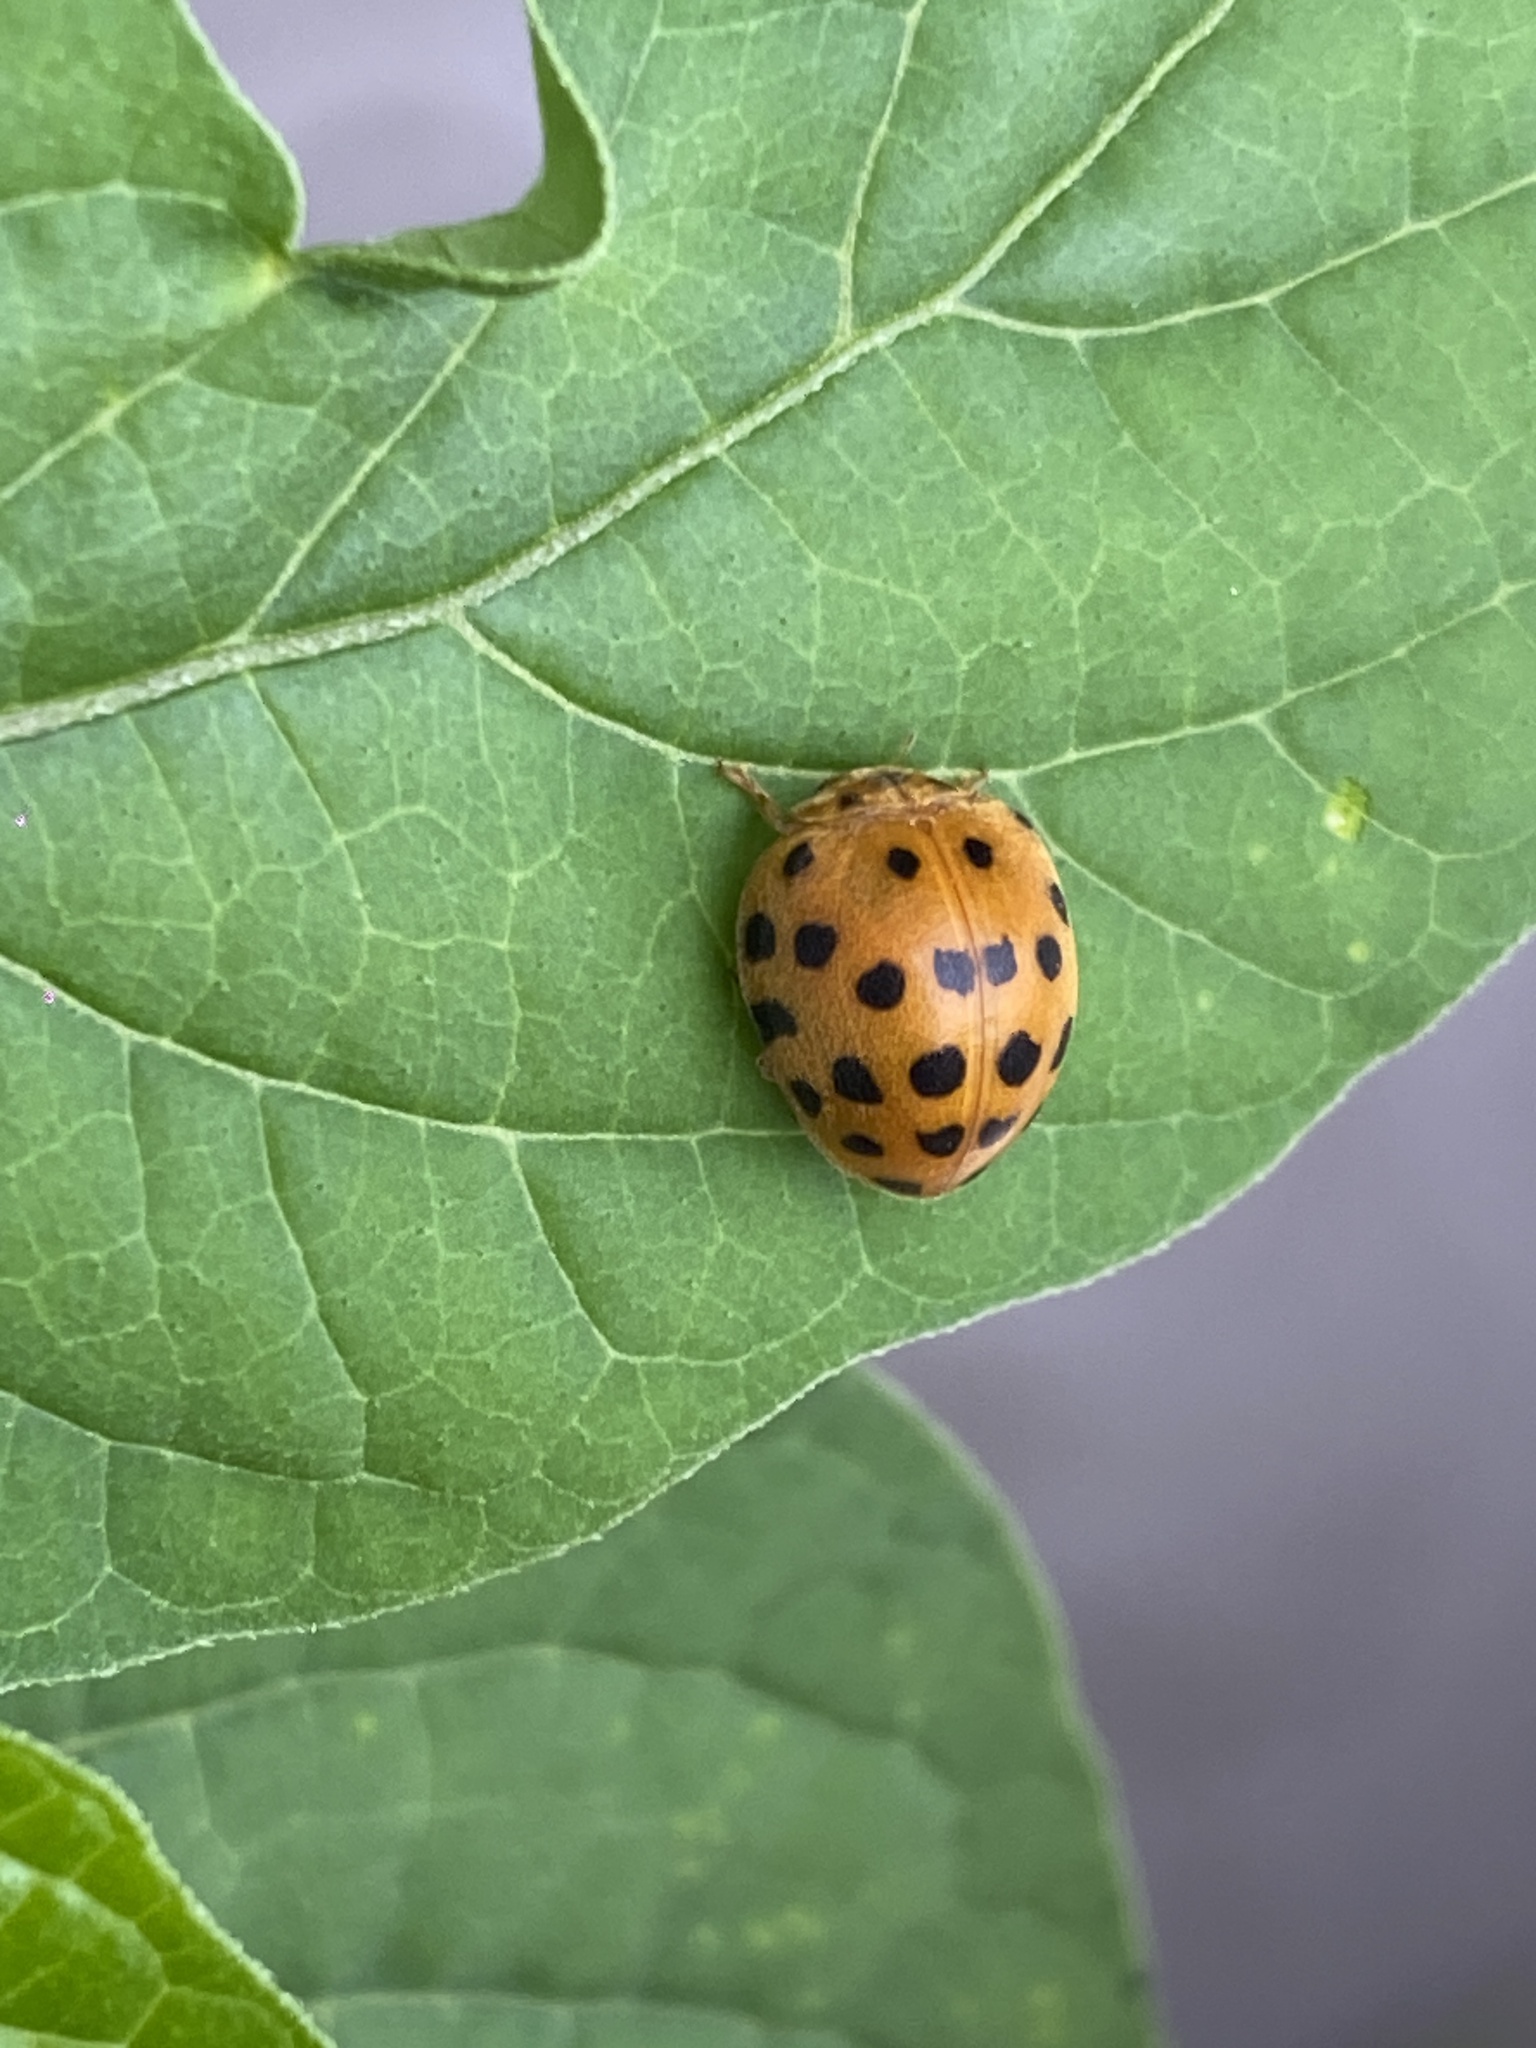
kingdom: Animalia
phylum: Arthropoda
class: Insecta
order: Coleoptera
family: Coccinellidae
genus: Henosepilachna
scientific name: Henosepilachna vigintioctopunctata
